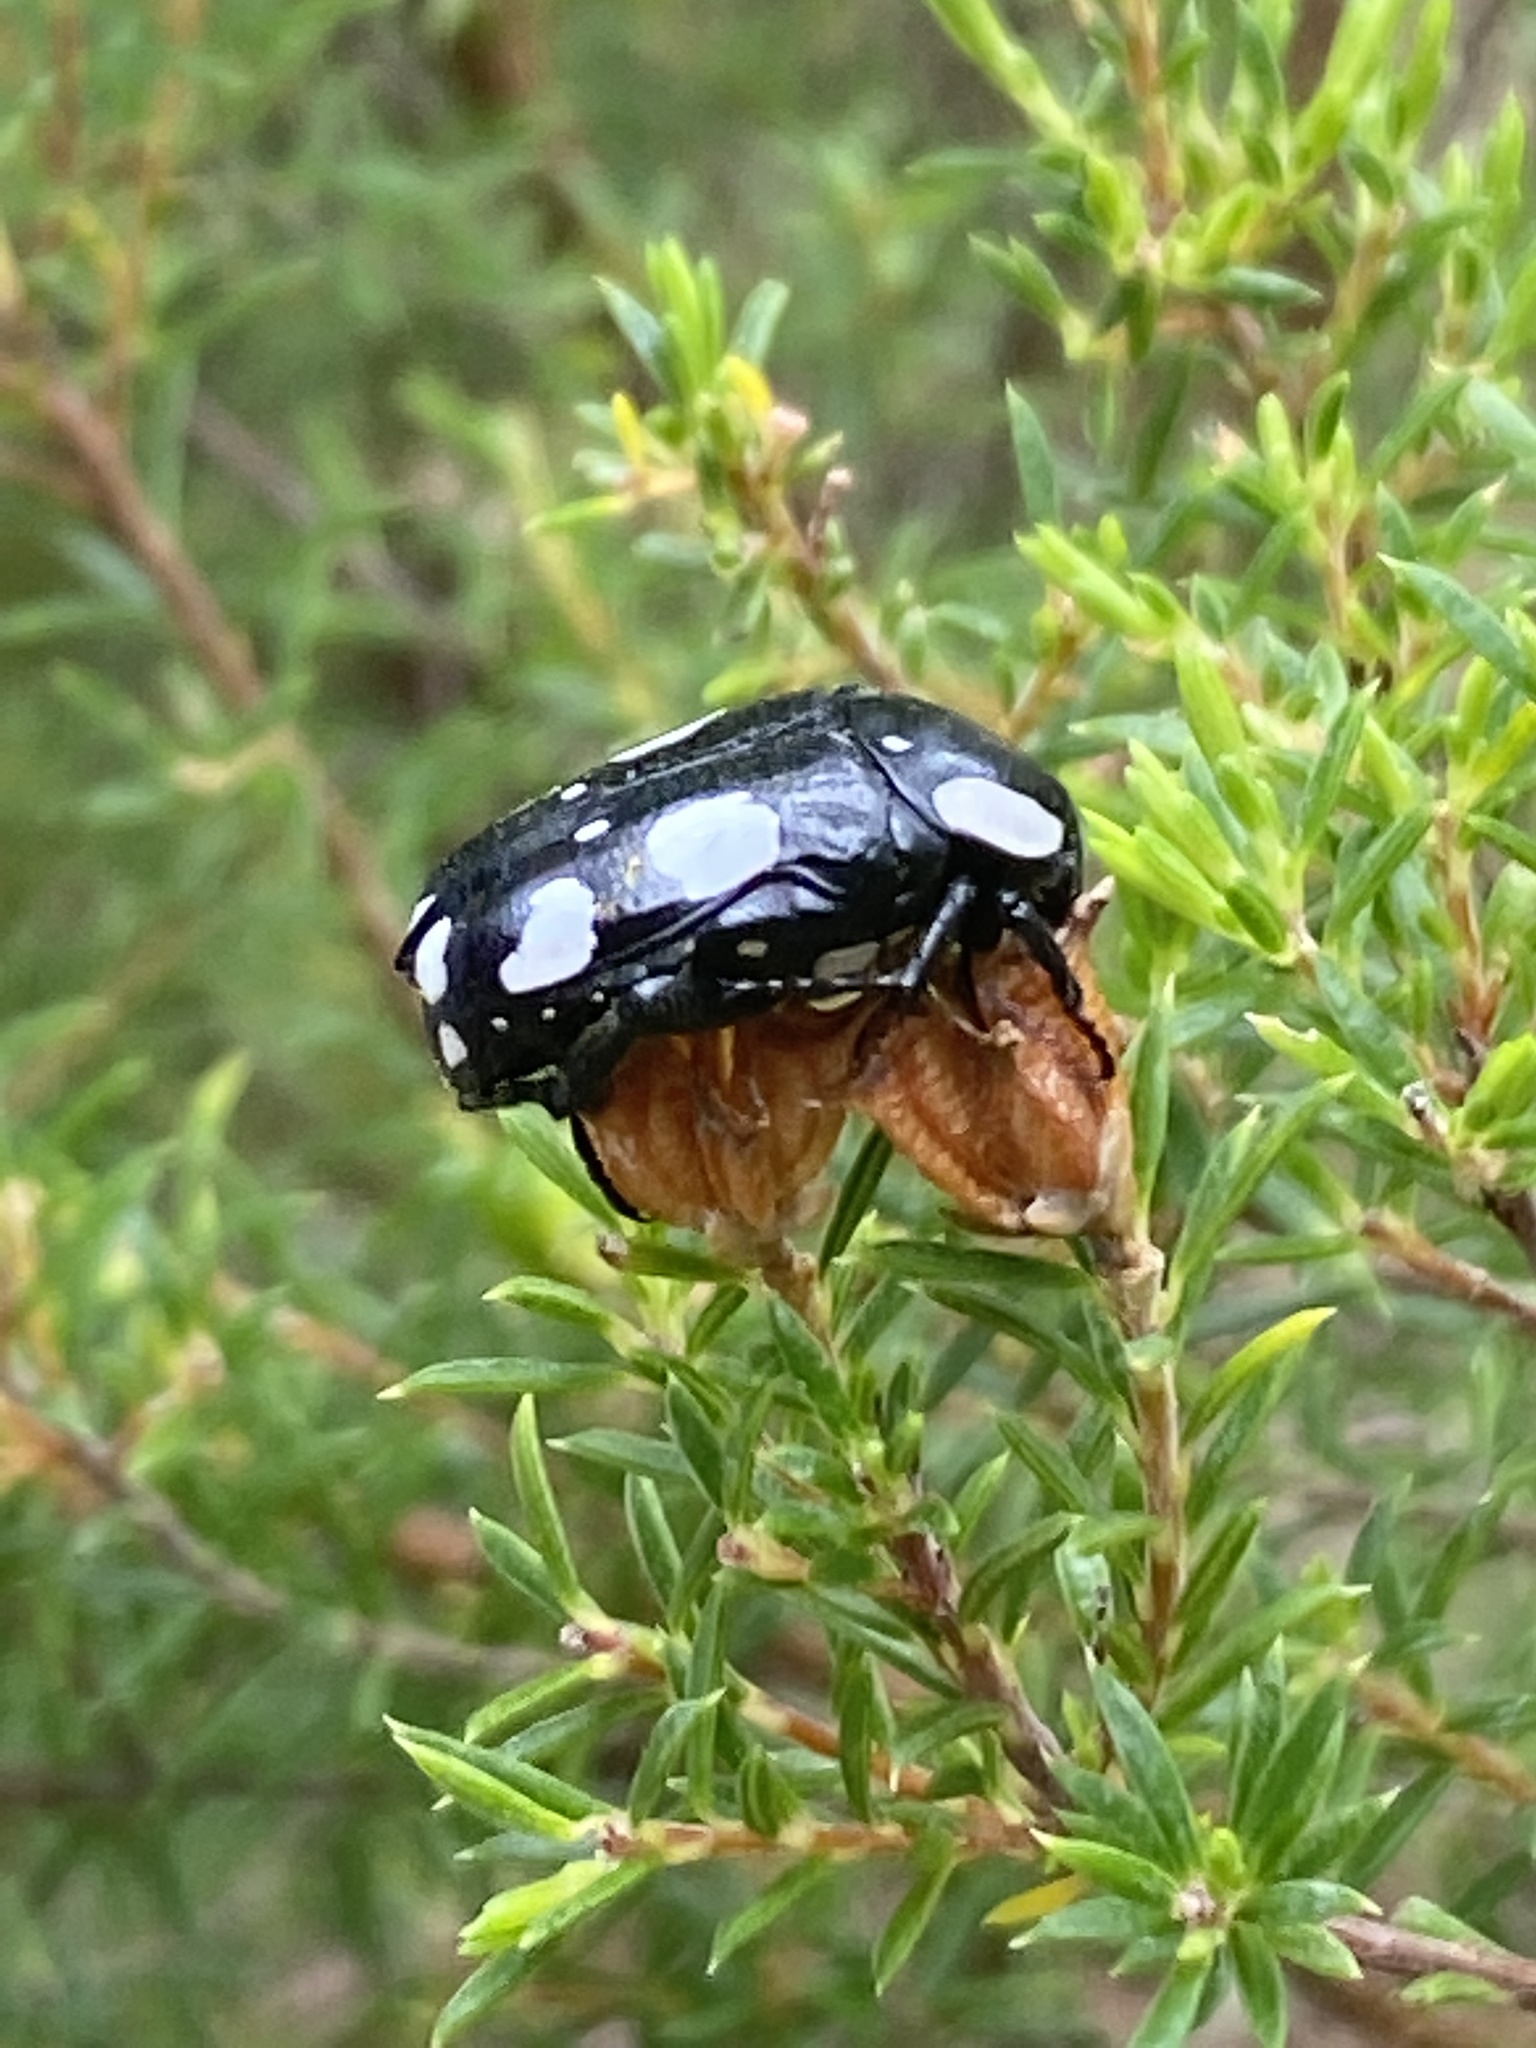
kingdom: Animalia
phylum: Arthropoda
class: Insecta
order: Coleoptera
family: Scarabaeidae
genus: Mausoleopsis
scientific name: Mausoleopsis amabilis
